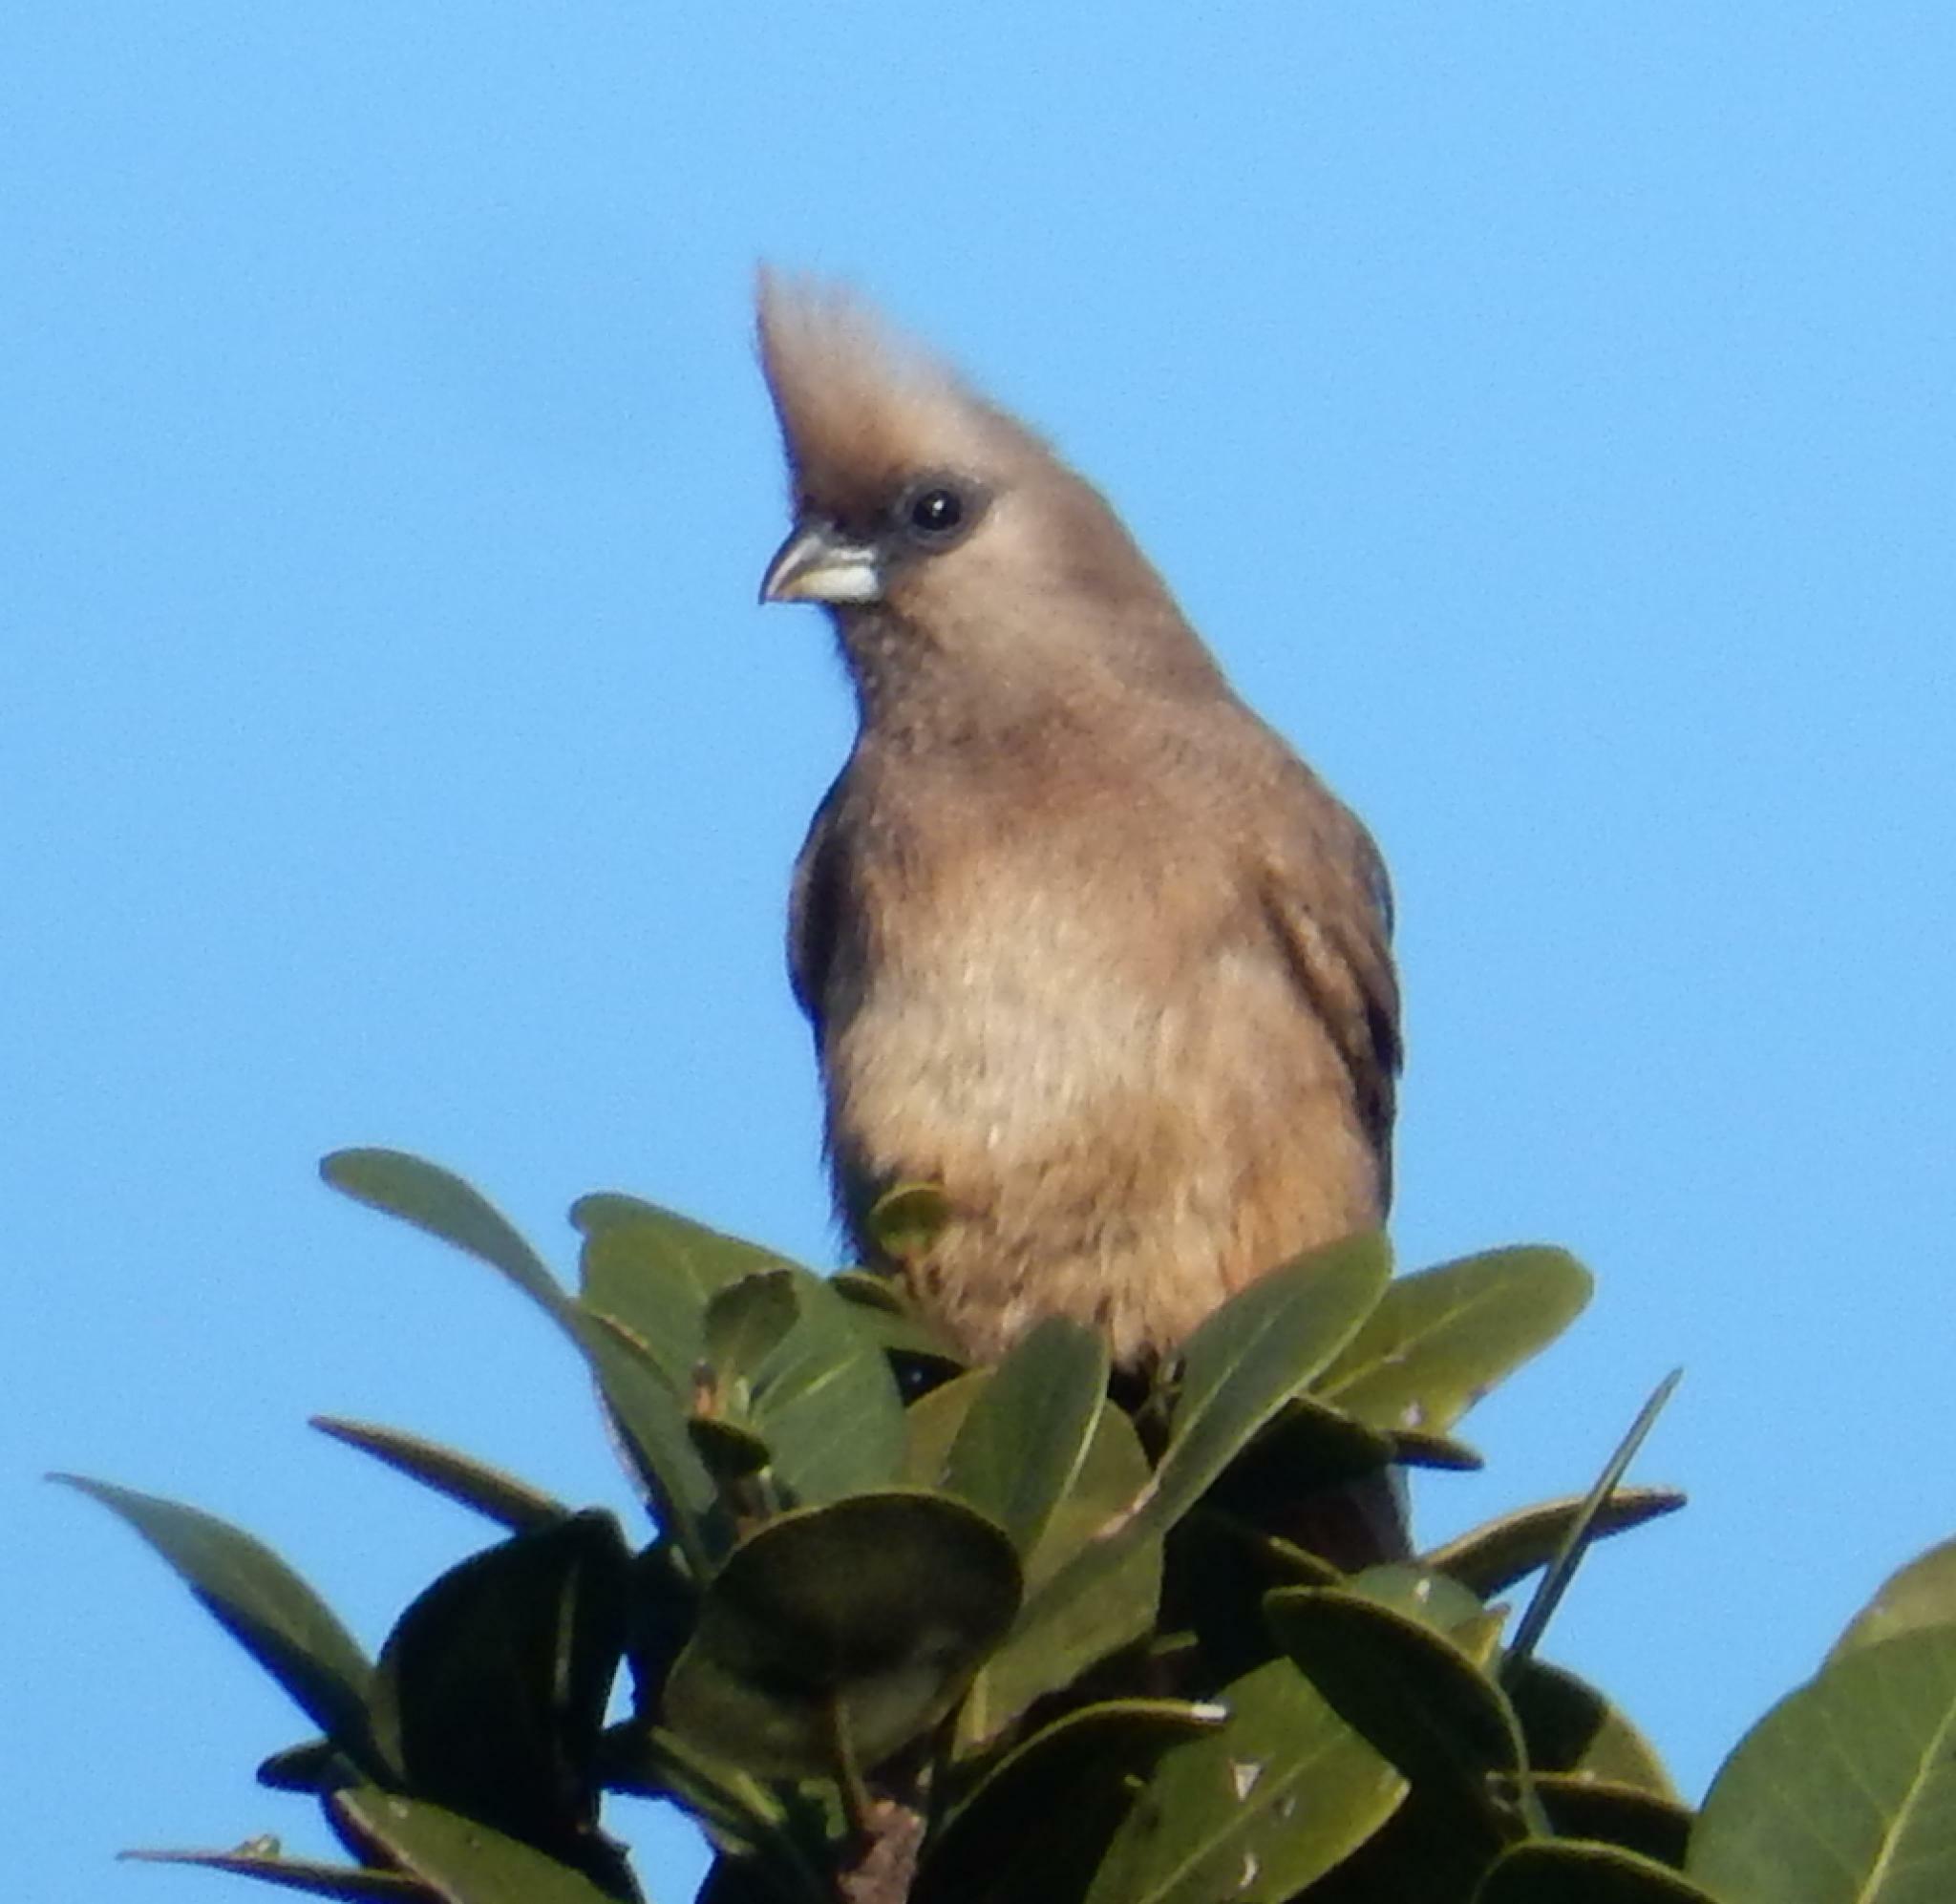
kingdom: Animalia
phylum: Chordata
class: Aves
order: Coliiformes
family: Coliidae
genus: Colius
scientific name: Colius striatus
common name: Speckled mousebird
